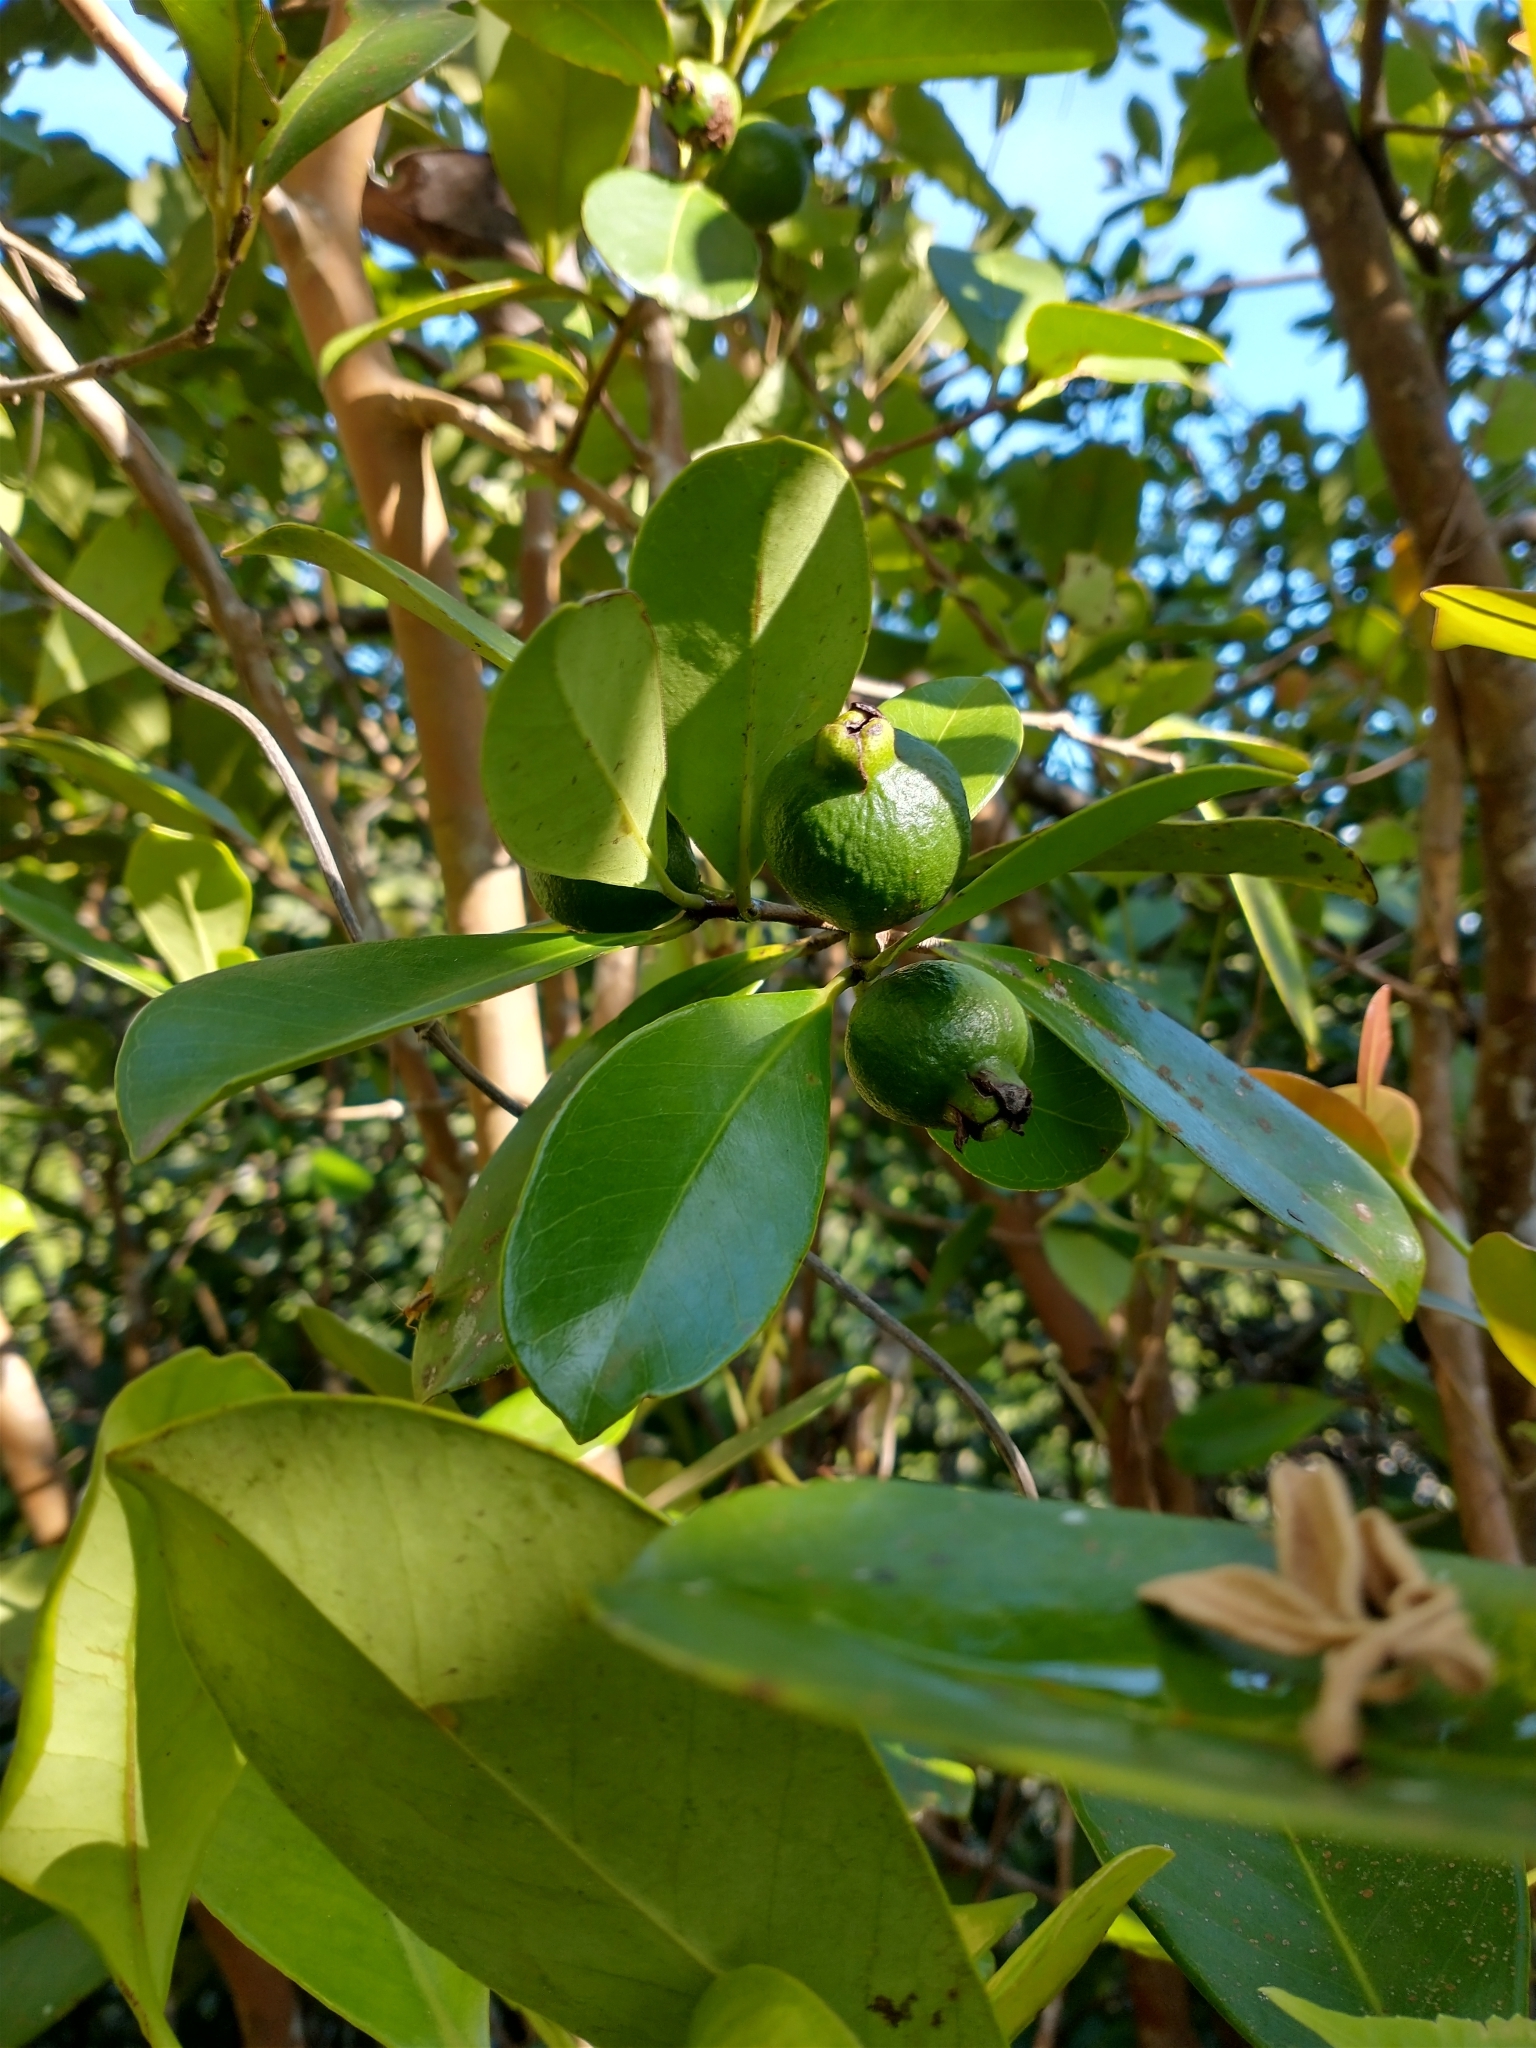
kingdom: Plantae
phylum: Tracheophyta
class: Magnoliopsida
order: Myrtales
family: Myrtaceae
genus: Psidium
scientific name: Psidium cattleianum
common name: Strawberry guava
